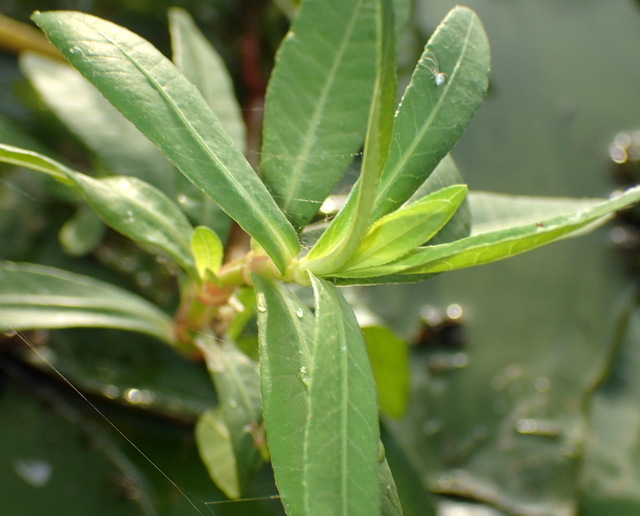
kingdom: Plantae
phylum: Tracheophyta
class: Magnoliopsida
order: Caryophyllales
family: Amaranthaceae
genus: Alternanthera
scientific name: Alternanthera philoxeroides
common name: Alligatorweed
